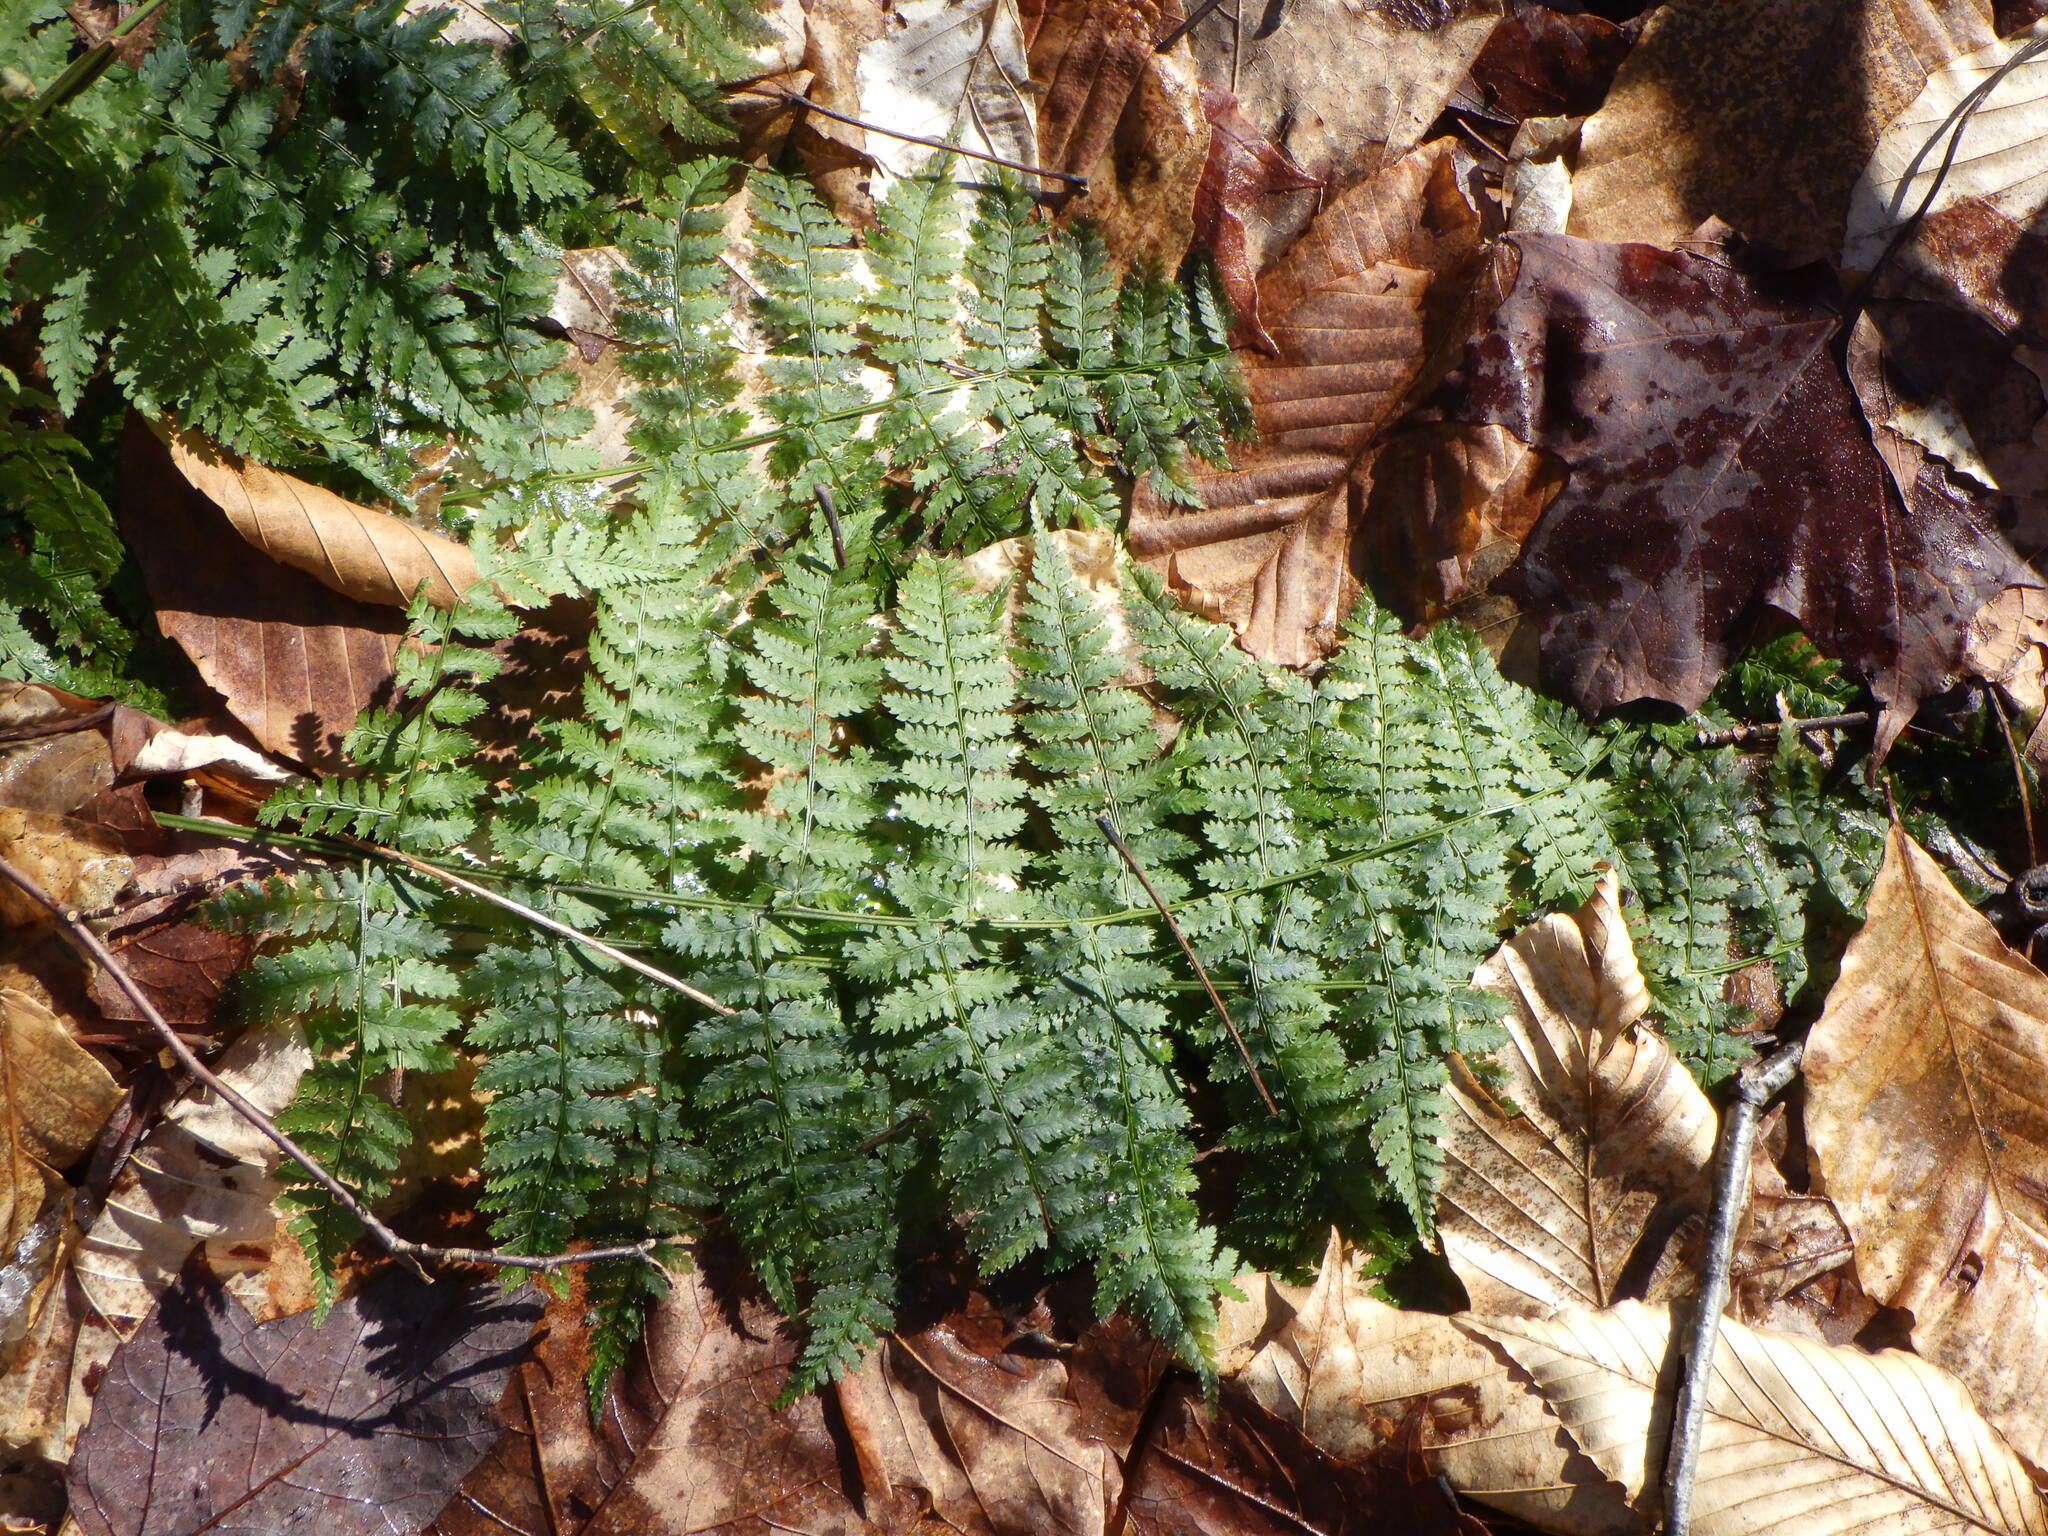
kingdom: Plantae
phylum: Tracheophyta
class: Polypodiopsida
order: Polypodiales
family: Dryopteridaceae
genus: Dryopteris
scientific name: Dryopteris intermedia
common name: Evergreen wood fern
